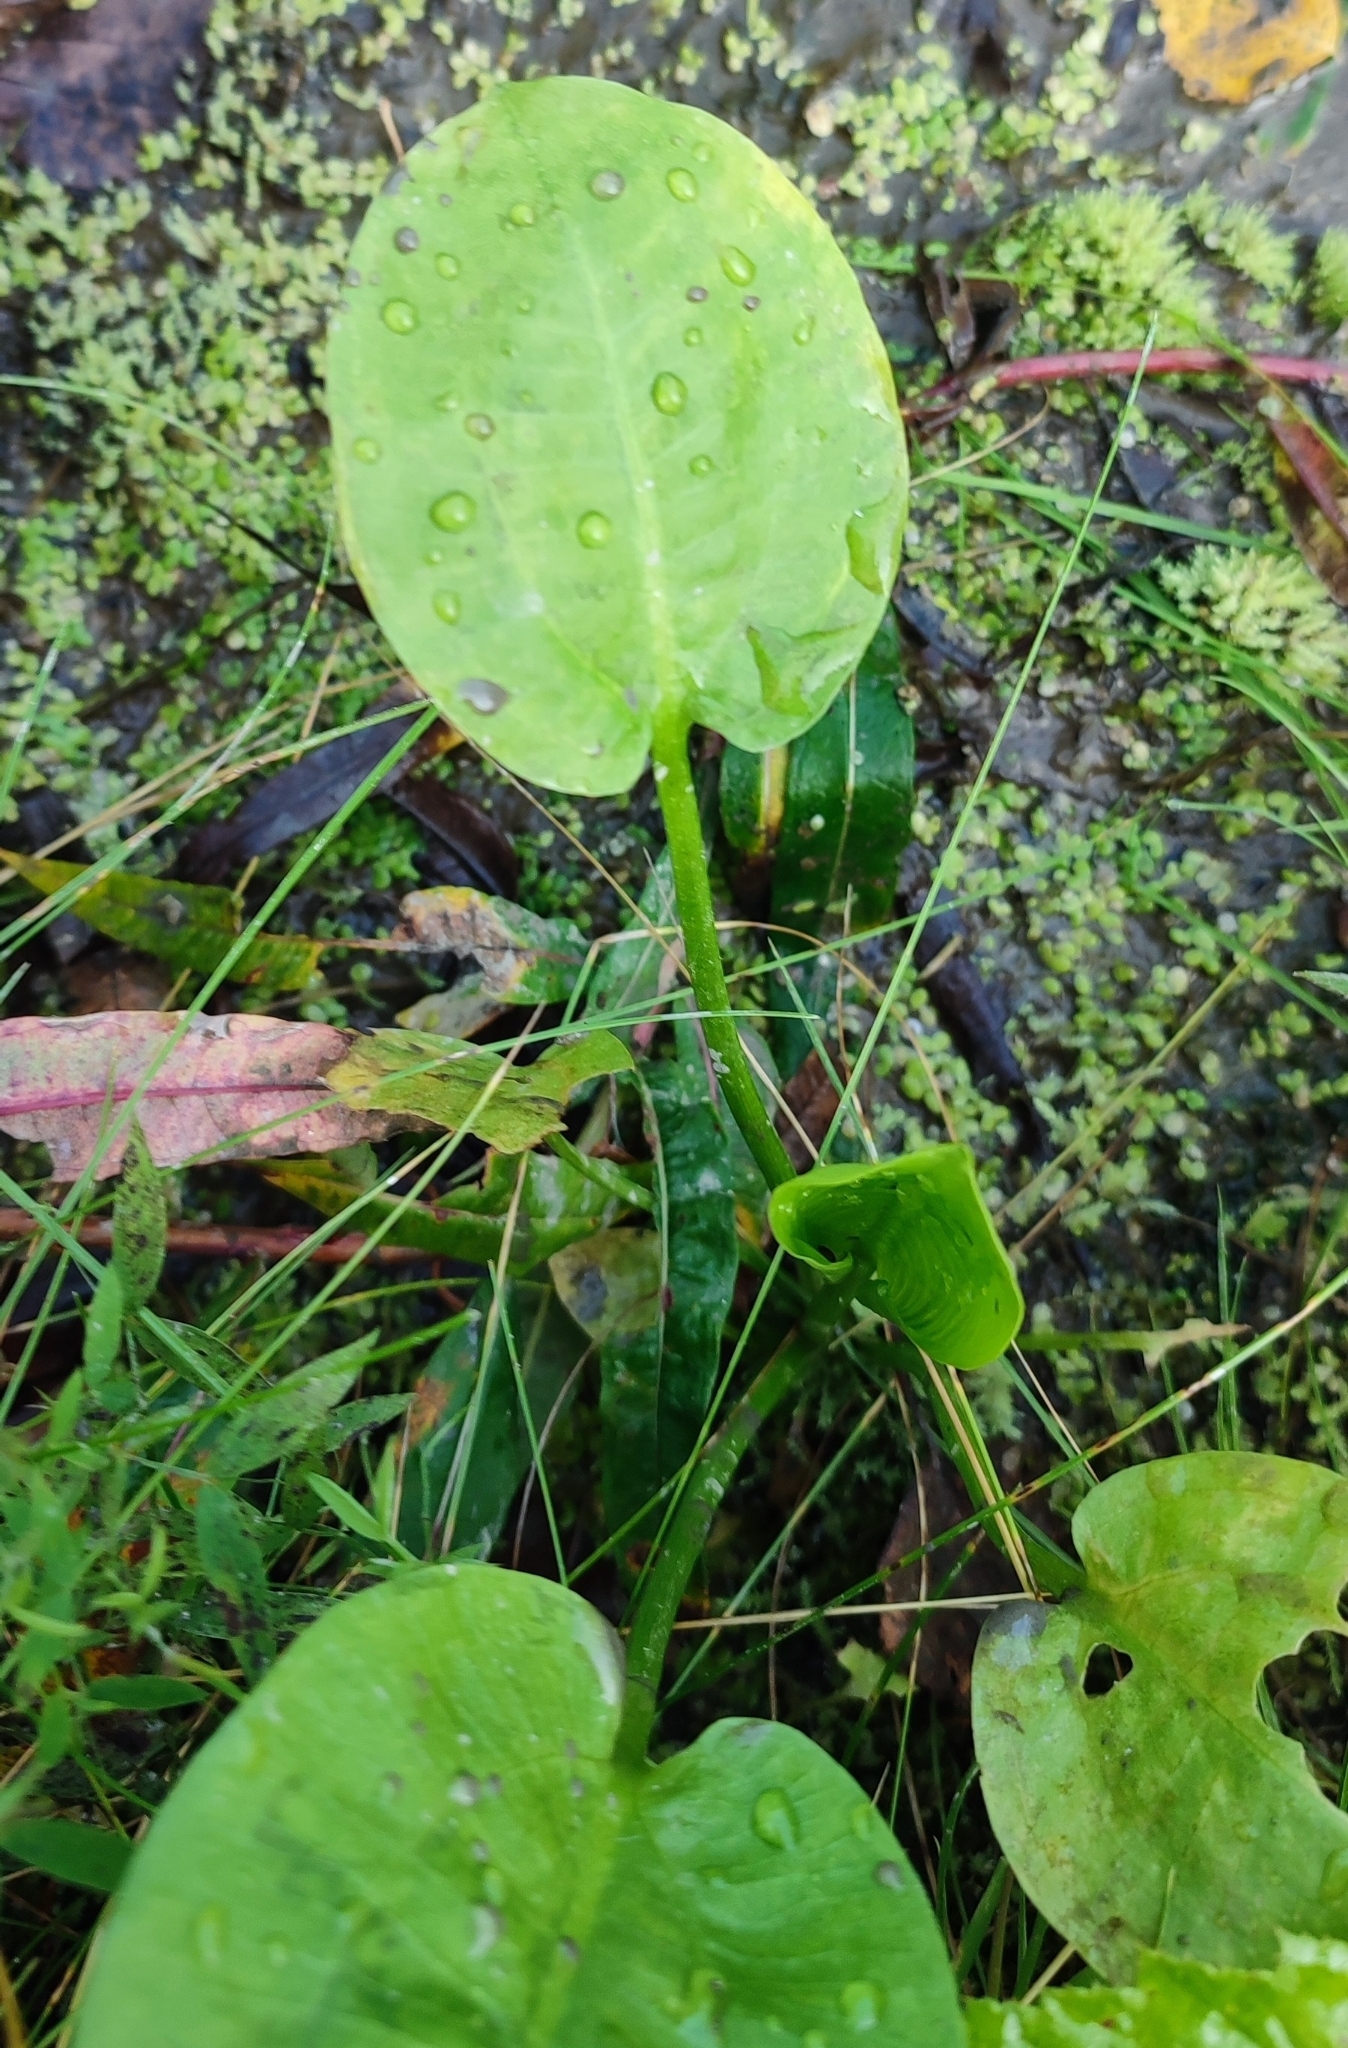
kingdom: Plantae
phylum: Tracheophyta
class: Liliopsida
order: Alismatales
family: Alismataceae
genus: Alisma
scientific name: Alisma plantago-aquatica
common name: Water-plantain
